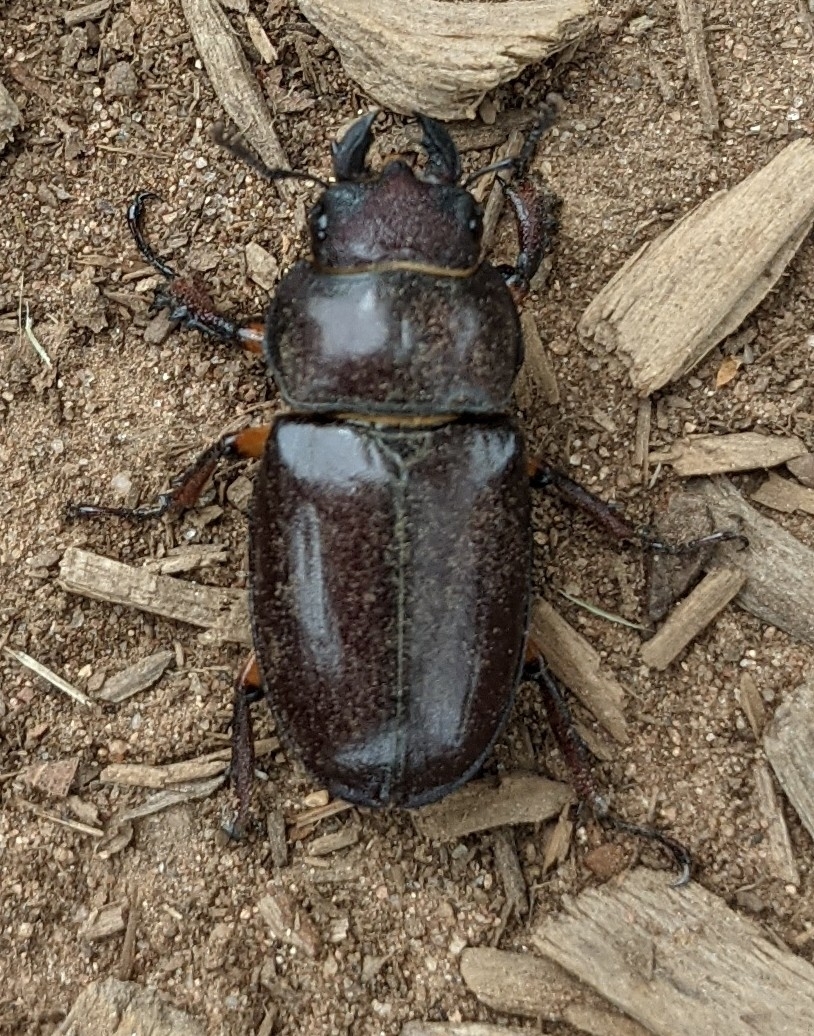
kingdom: Animalia
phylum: Arthropoda
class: Insecta
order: Coleoptera
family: Lucanidae
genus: Lucanus
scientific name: Lucanus capreolus
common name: Stag beetle
